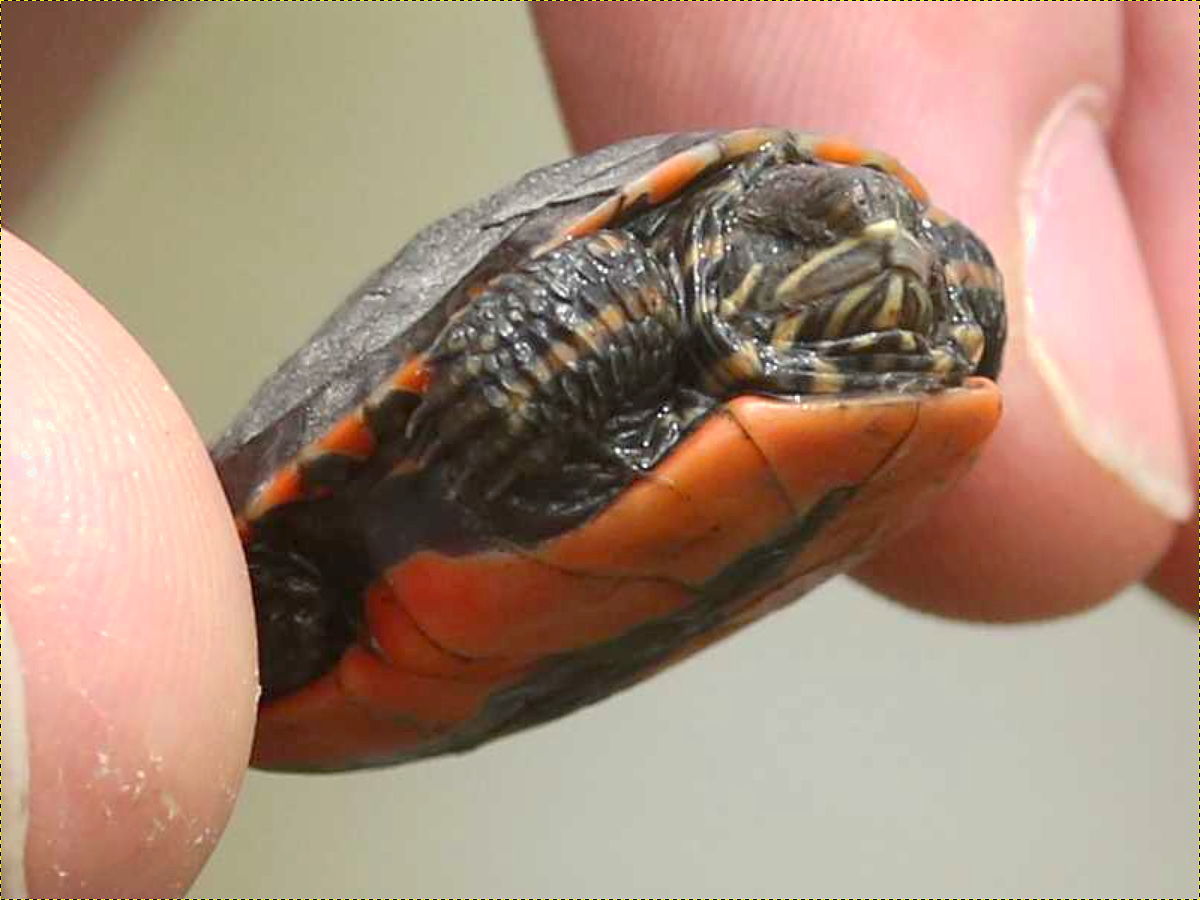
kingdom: Animalia
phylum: Chordata
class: Testudines
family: Emydidae
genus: Chrysemys
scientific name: Chrysemys picta
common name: Painted turtle
